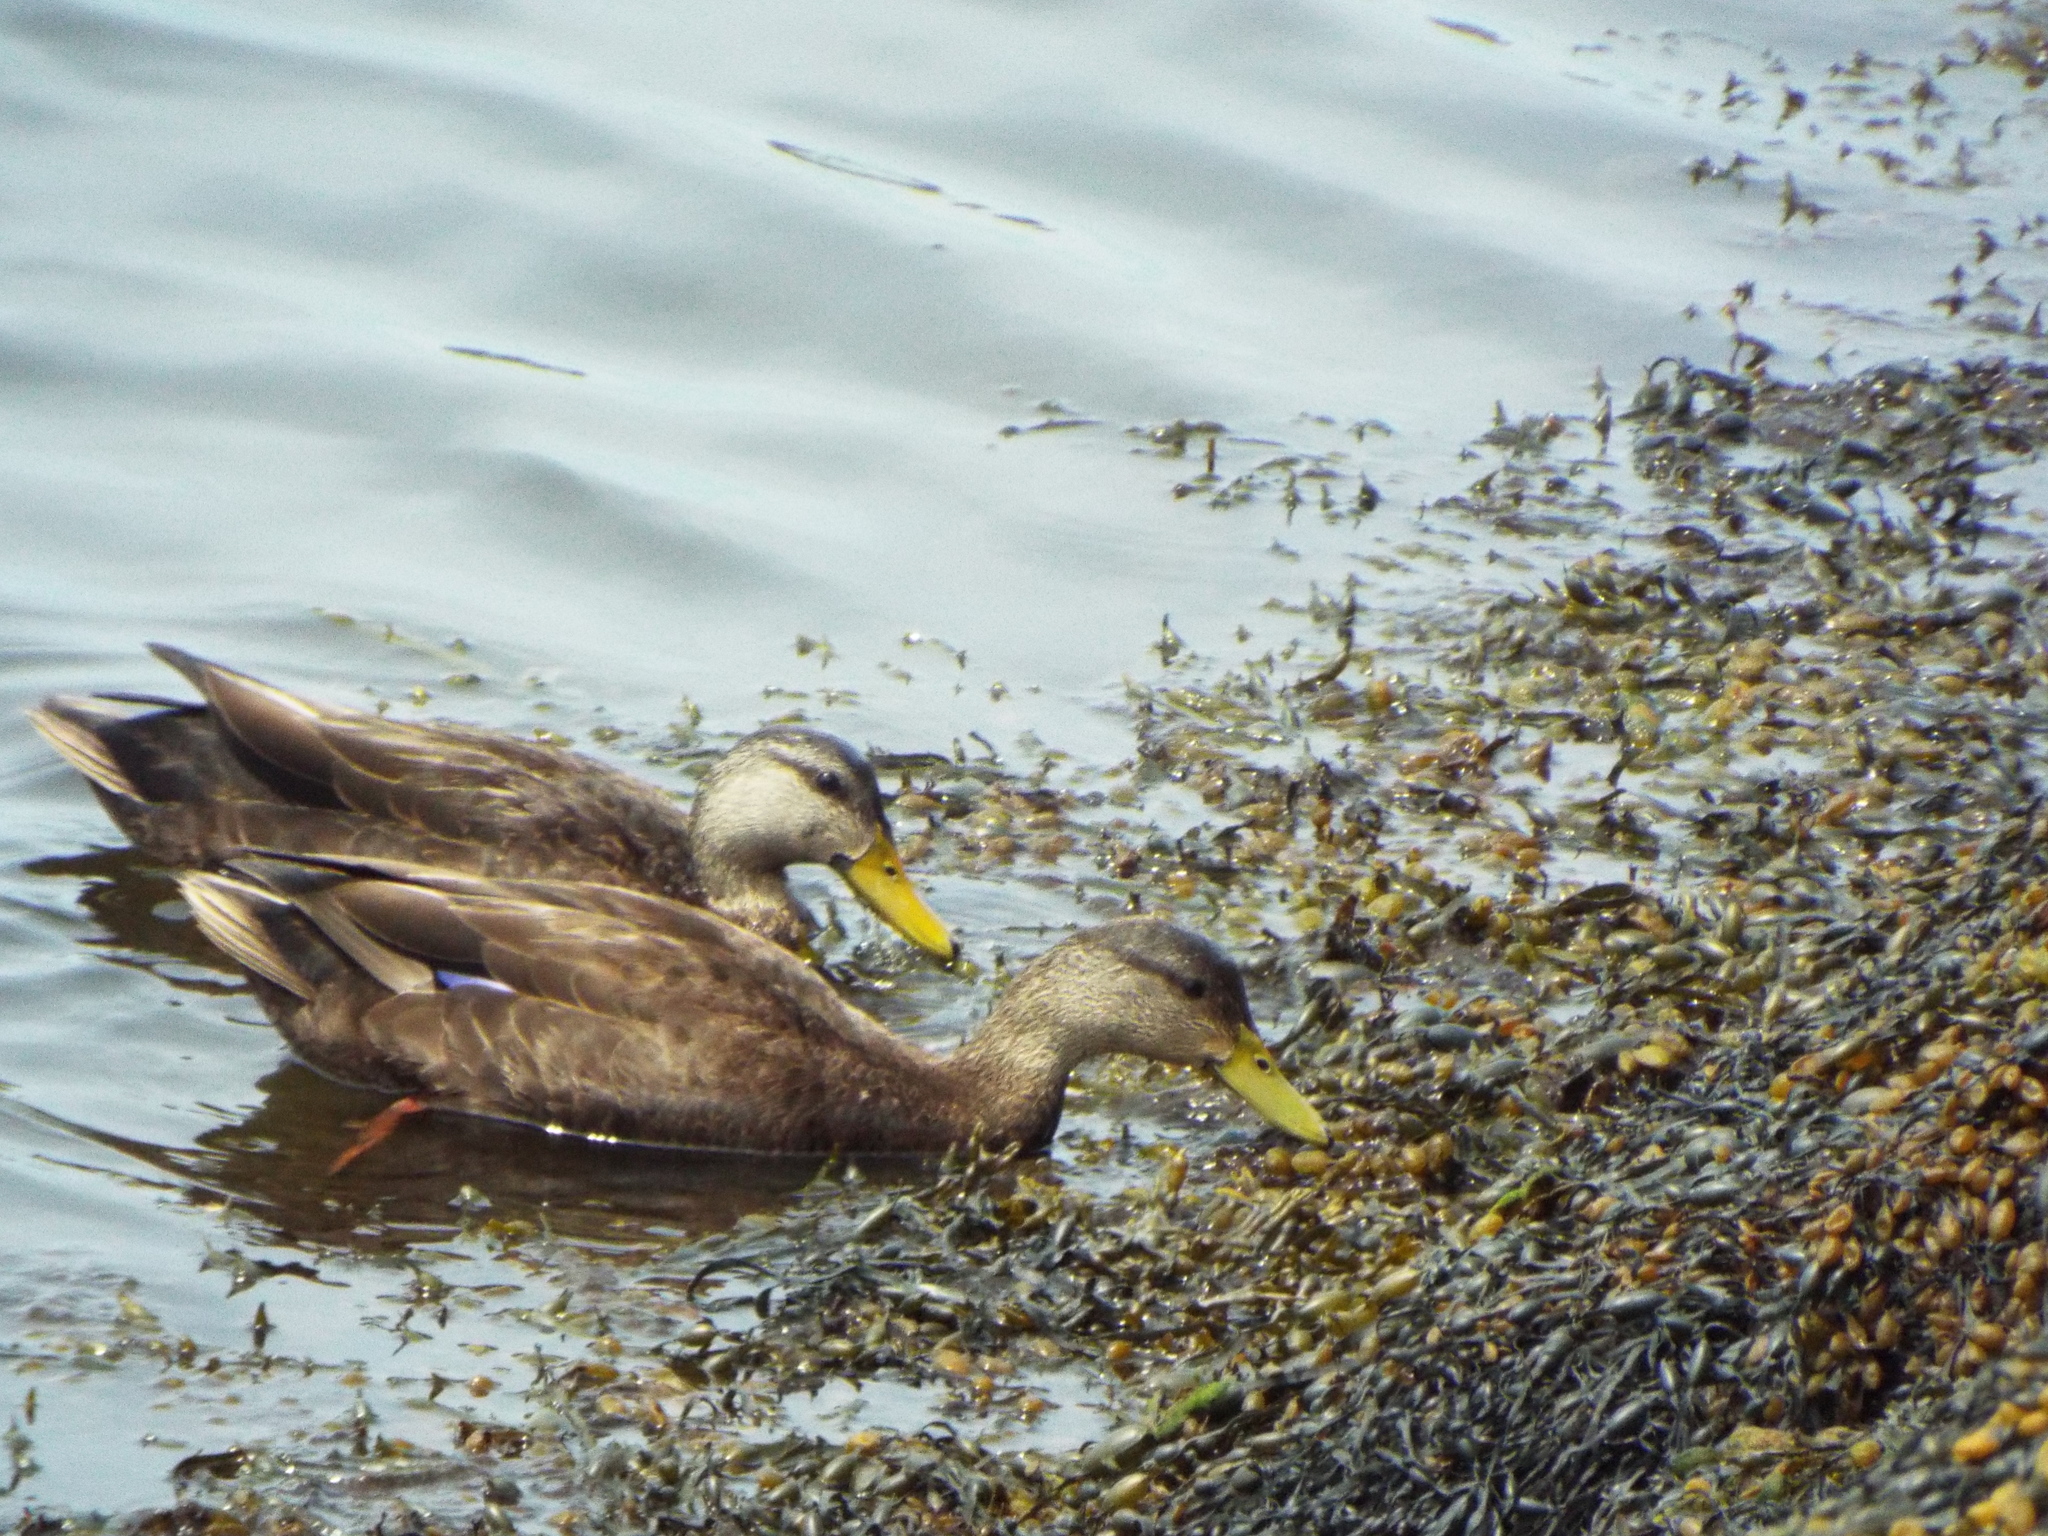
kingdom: Animalia
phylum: Chordata
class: Aves
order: Anseriformes
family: Anatidae
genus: Anas
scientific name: Anas rubripes
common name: American black duck
